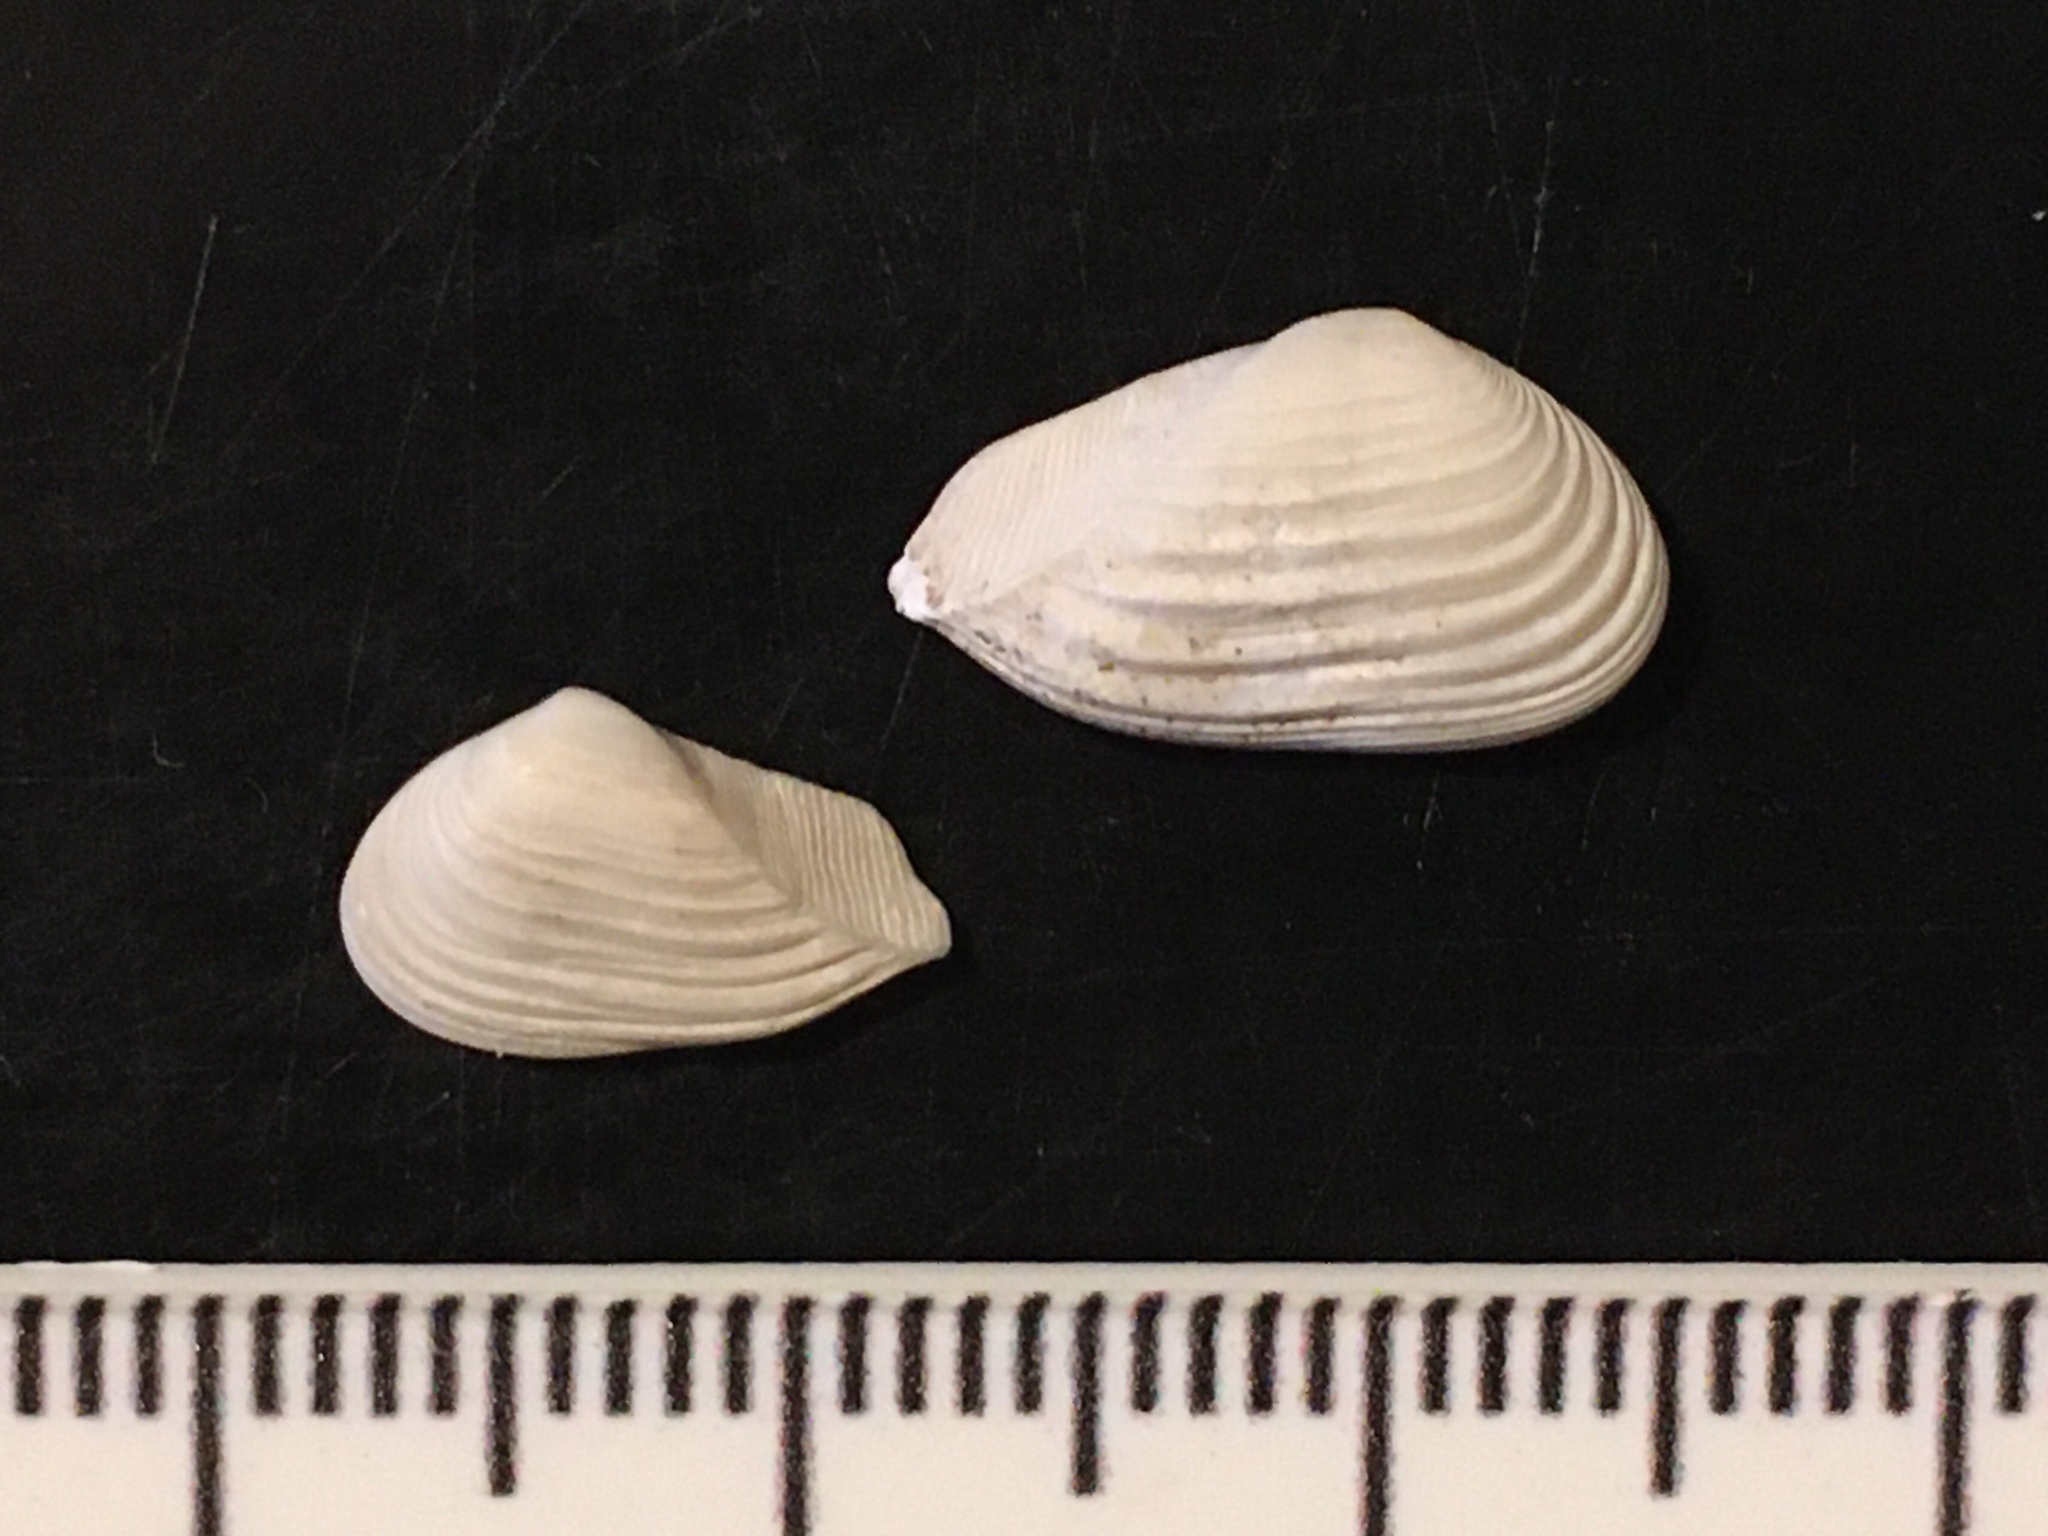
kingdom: Animalia
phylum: Mollusca
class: Bivalvia
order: Myida
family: Corbulidae
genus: Tenuicorbula
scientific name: Tenuicorbula lyoni
